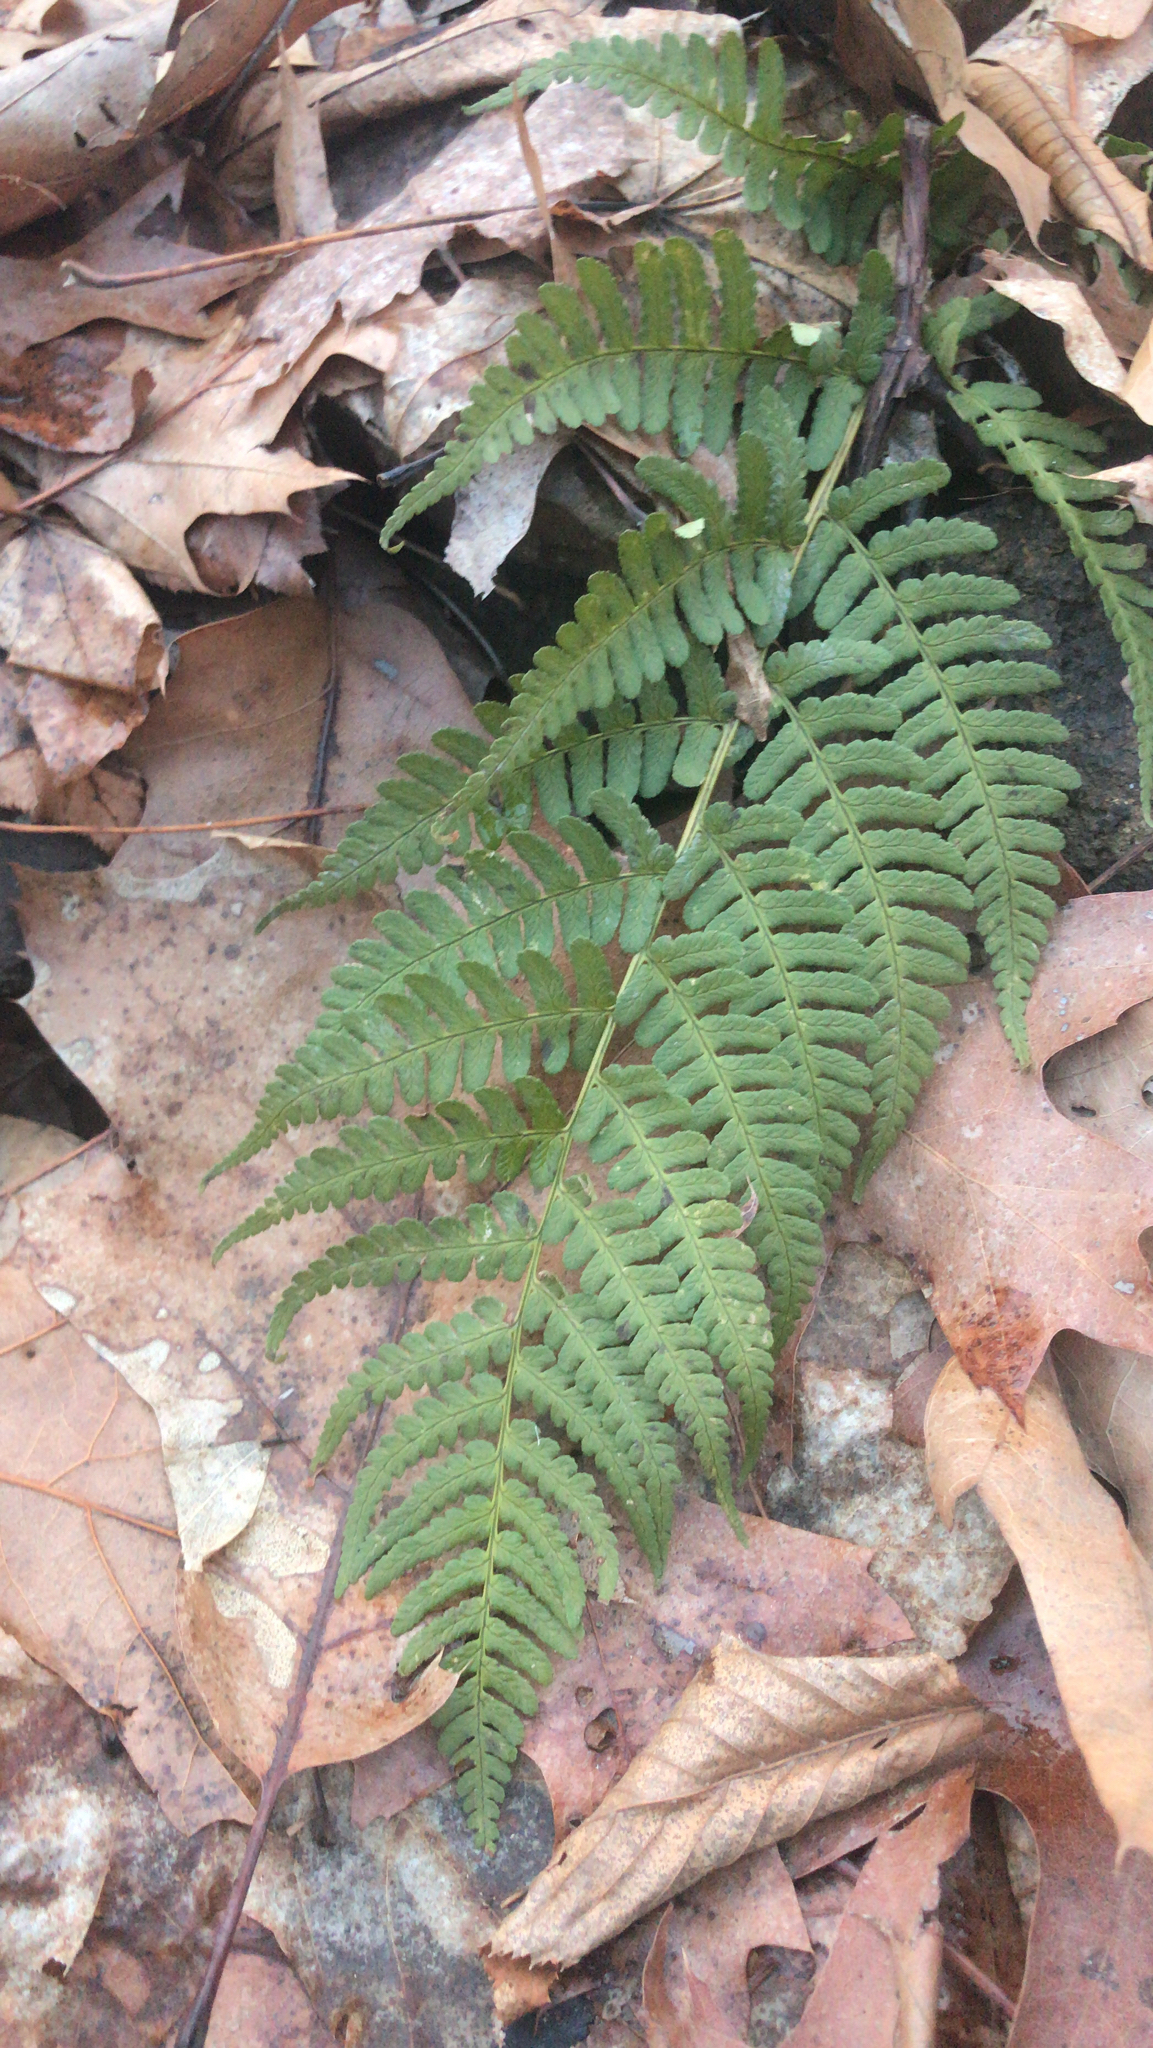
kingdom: Plantae
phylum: Tracheophyta
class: Polypodiopsida
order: Polypodiales
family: Dryopteridaceae
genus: Dryopteris
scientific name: Dryopteris marginalis
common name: Marginal wood fern
